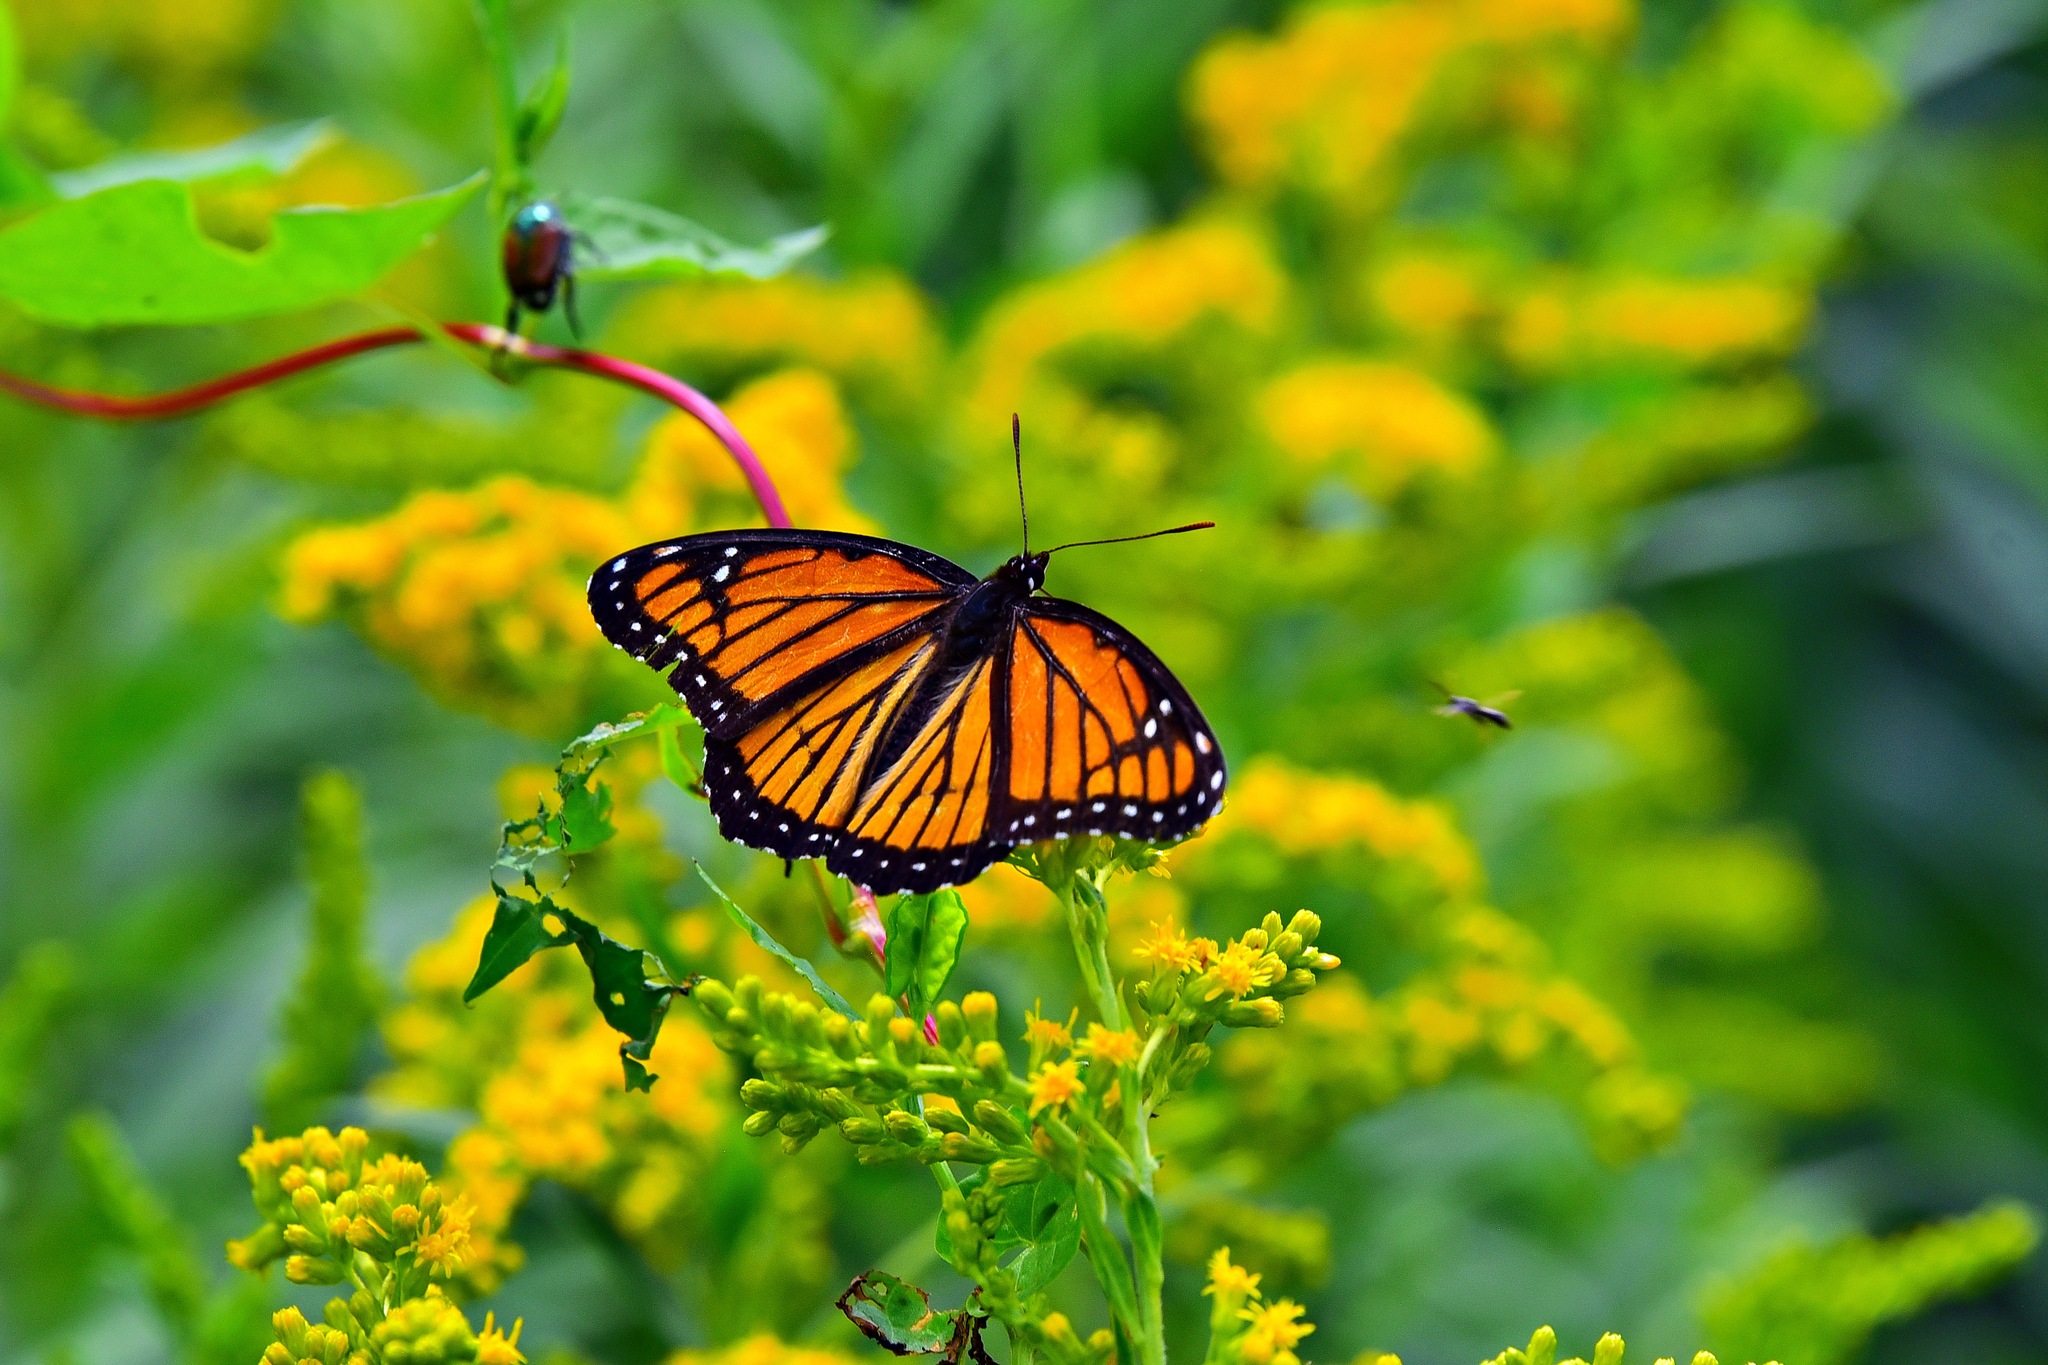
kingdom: Animalia
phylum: Arthropoda
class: Insecta
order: Lepidoptera
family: Nymphalidae
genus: Limenitis
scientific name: Limenitis archippus
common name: Viceroy
